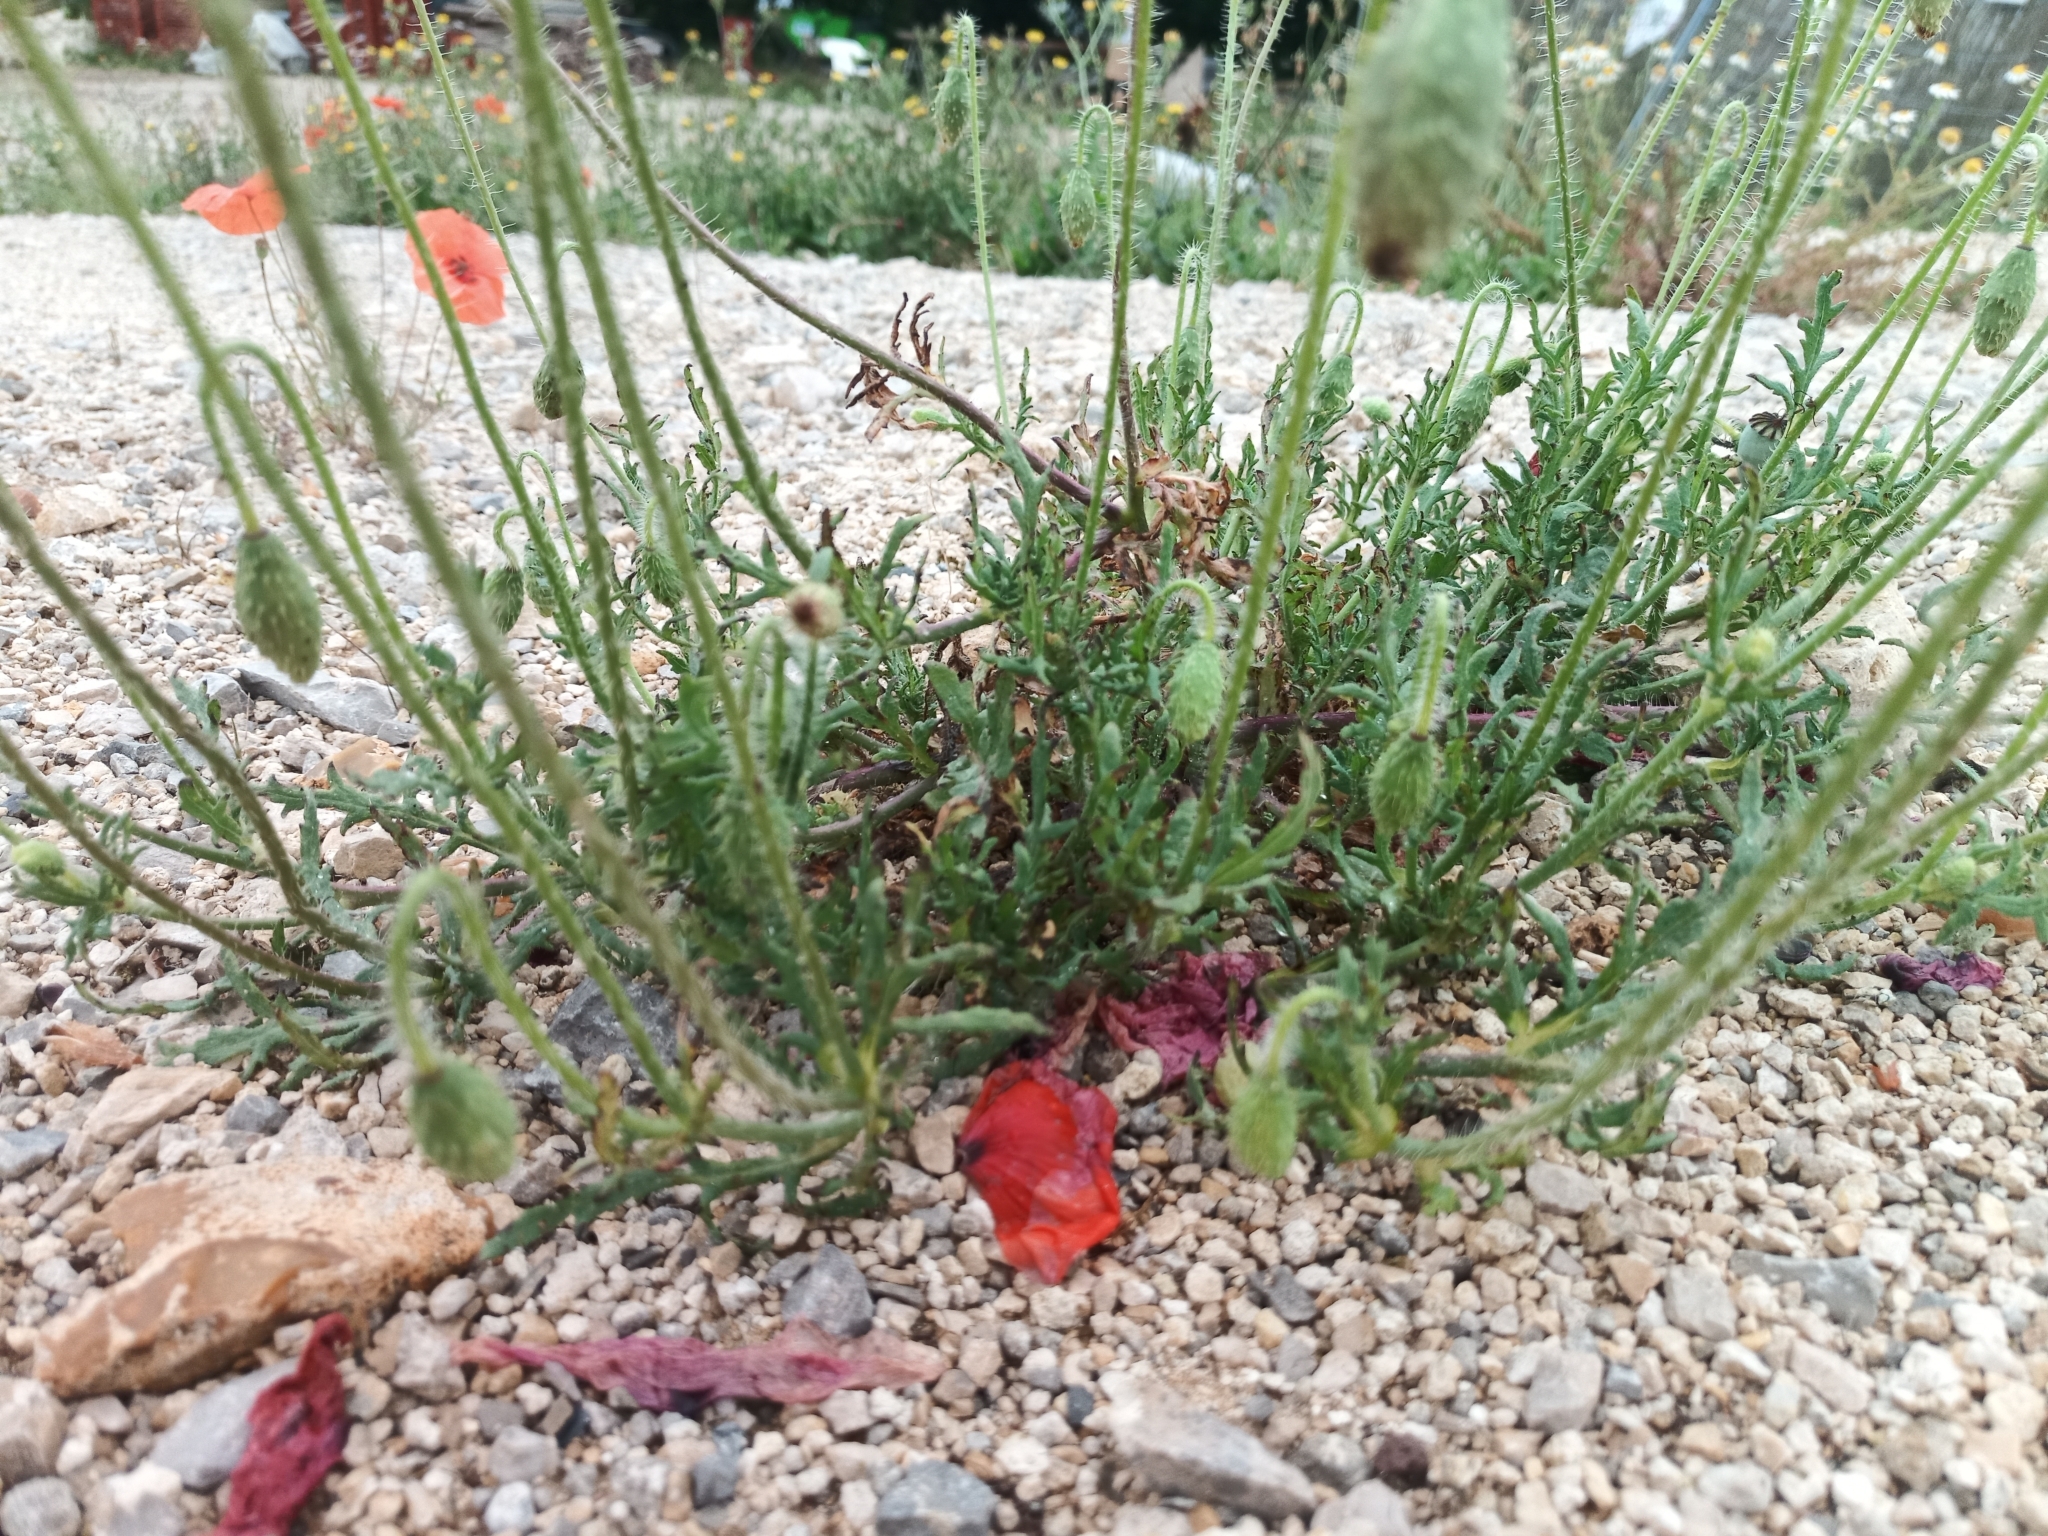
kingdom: Plantae
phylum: Tracheophyta
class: Magnoliopsida
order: Ranunculales
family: Papaveraceae
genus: Papaver
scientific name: Papaver rhoeas
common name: Corn poppy
